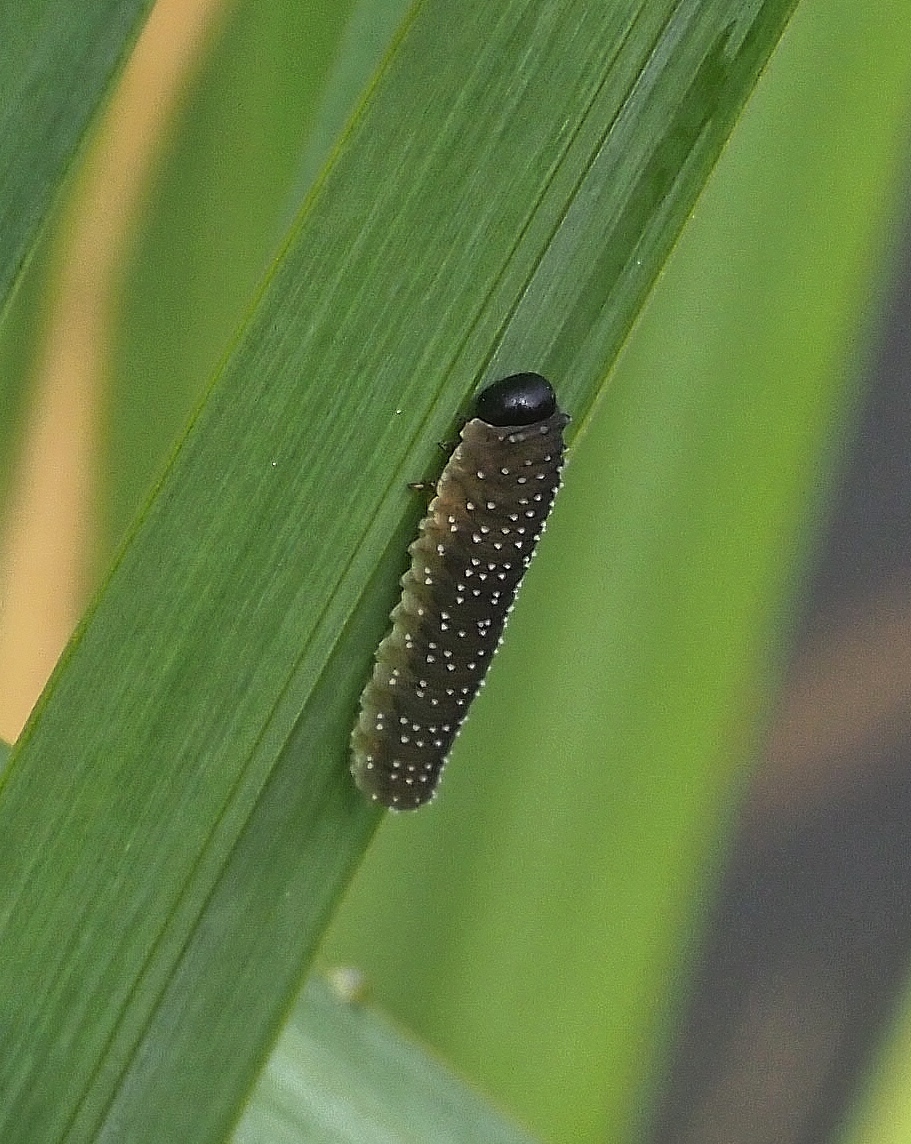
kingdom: Animalia
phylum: Arthropoda
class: Insecta
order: Hymenoptera
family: Tenthredinidae
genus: Rhadinoceraea
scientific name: Rhadinoceraea micans
